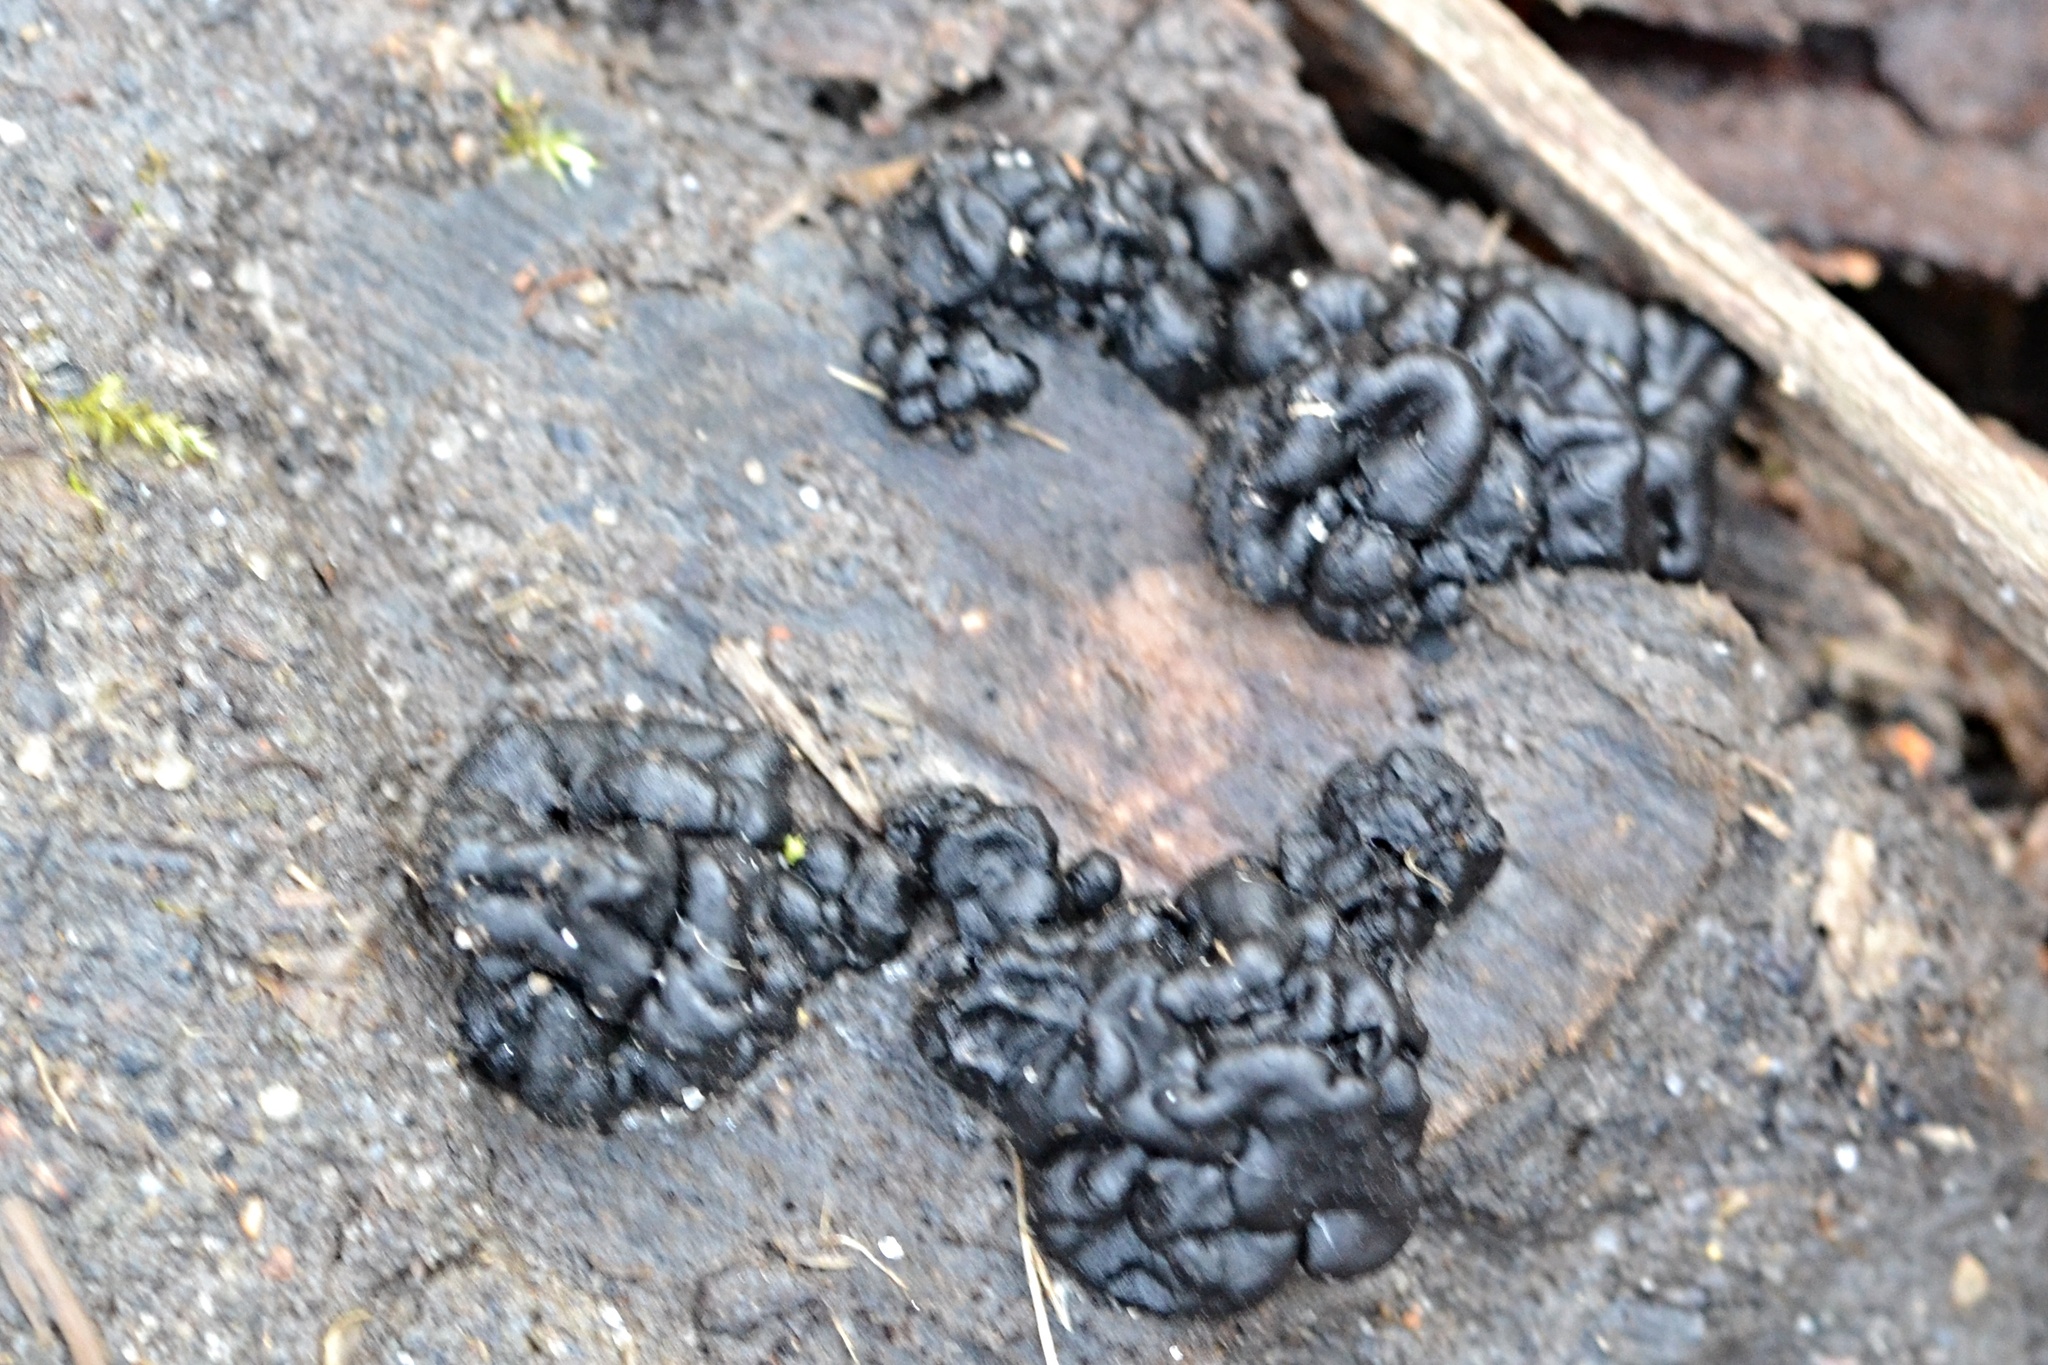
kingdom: Fungi
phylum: Basidiomycota
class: Agaricomycetes
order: Auriculariales
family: Auriculariaceae
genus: Exidia
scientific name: Exidia glandulosa
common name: Witches' butter
